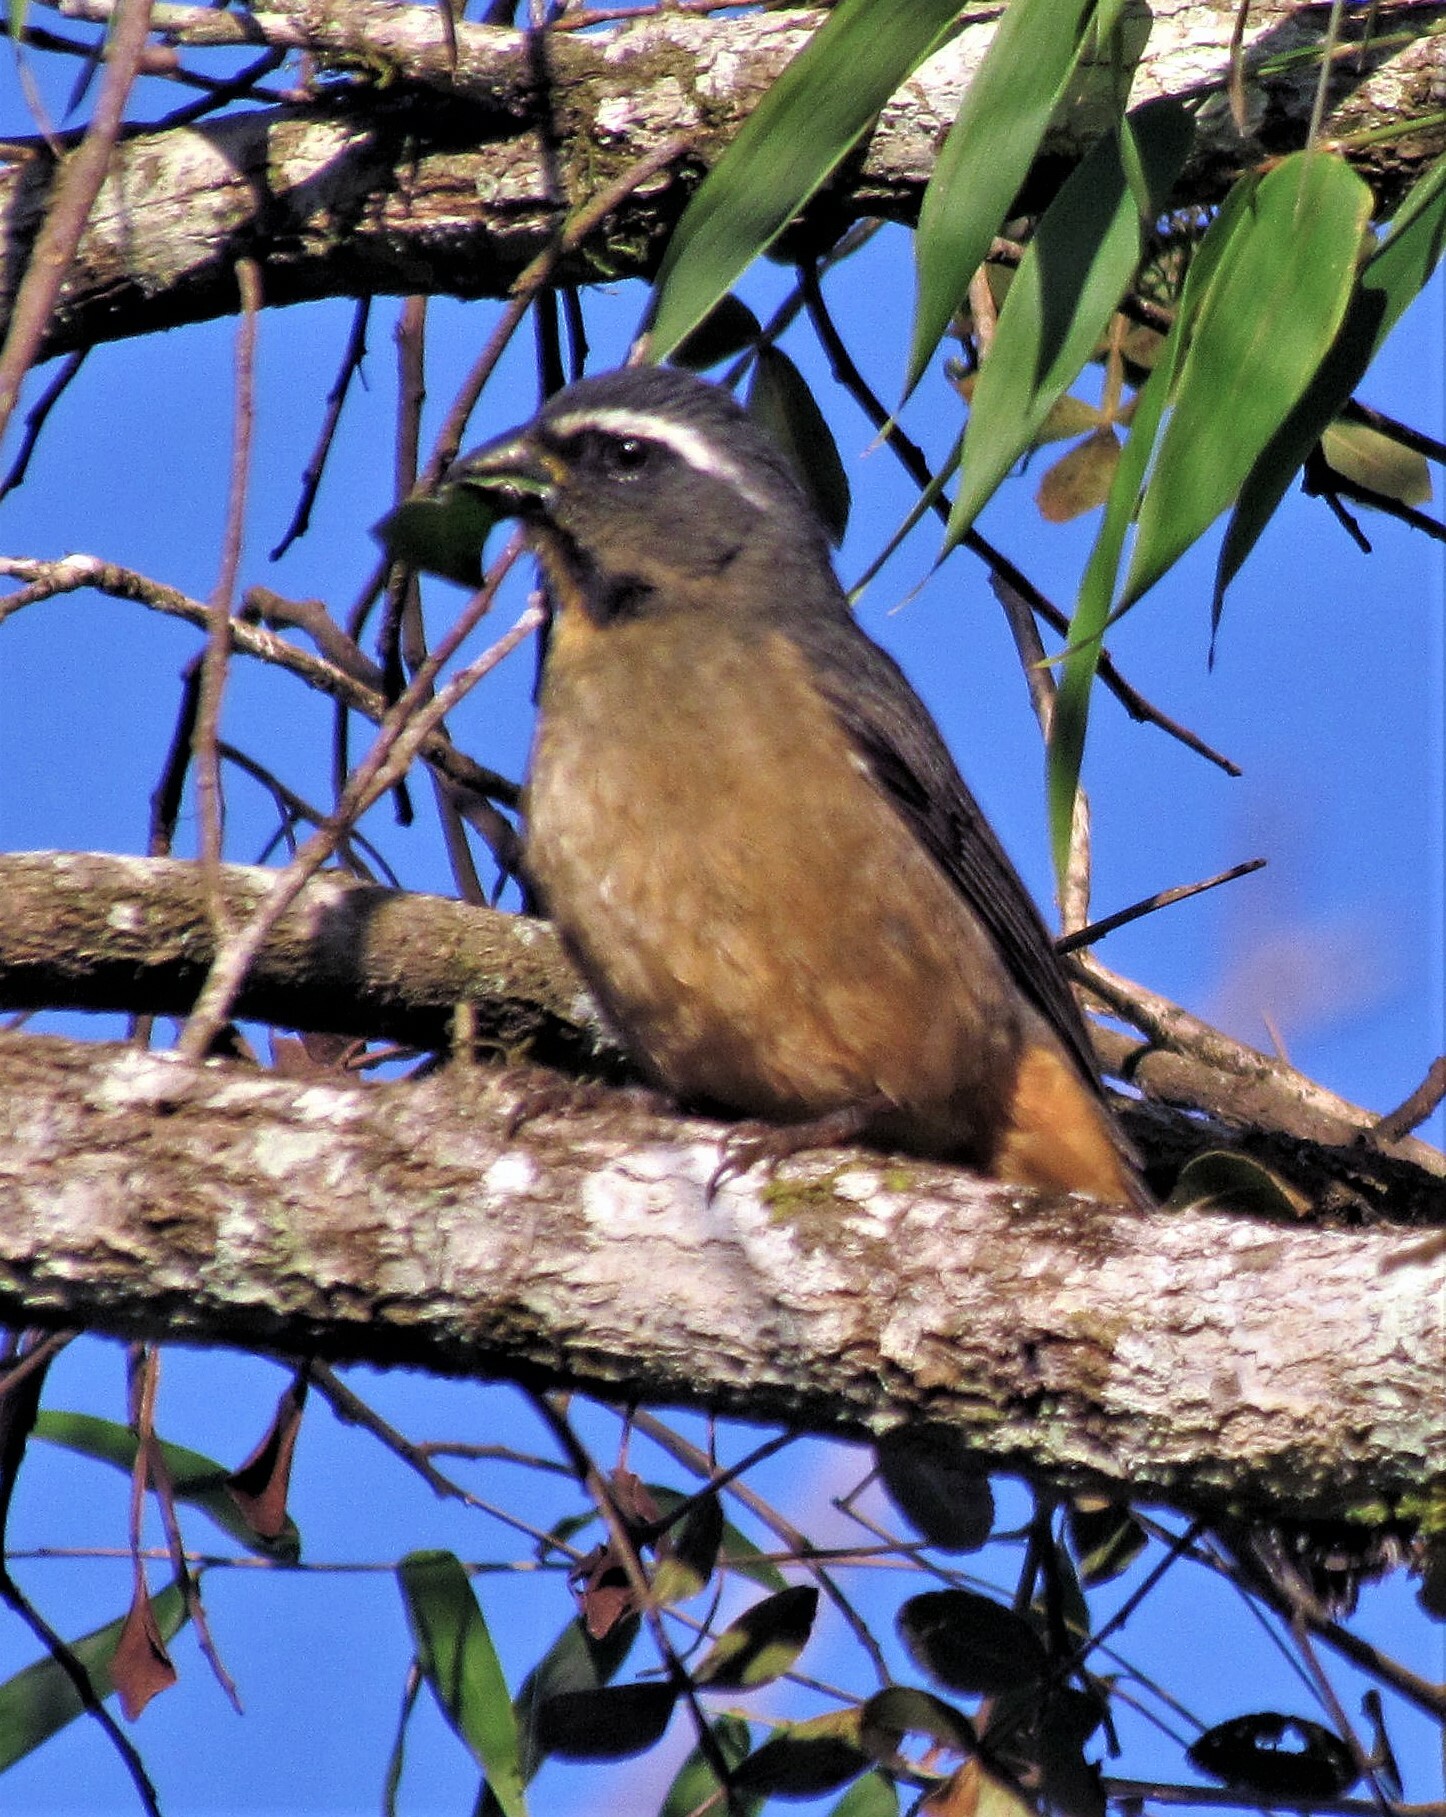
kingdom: Animalia
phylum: Chordata
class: Aves
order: Passeriformes
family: Thraupidae
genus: Saltator
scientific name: Saltator similis
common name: Green-winged saltator
